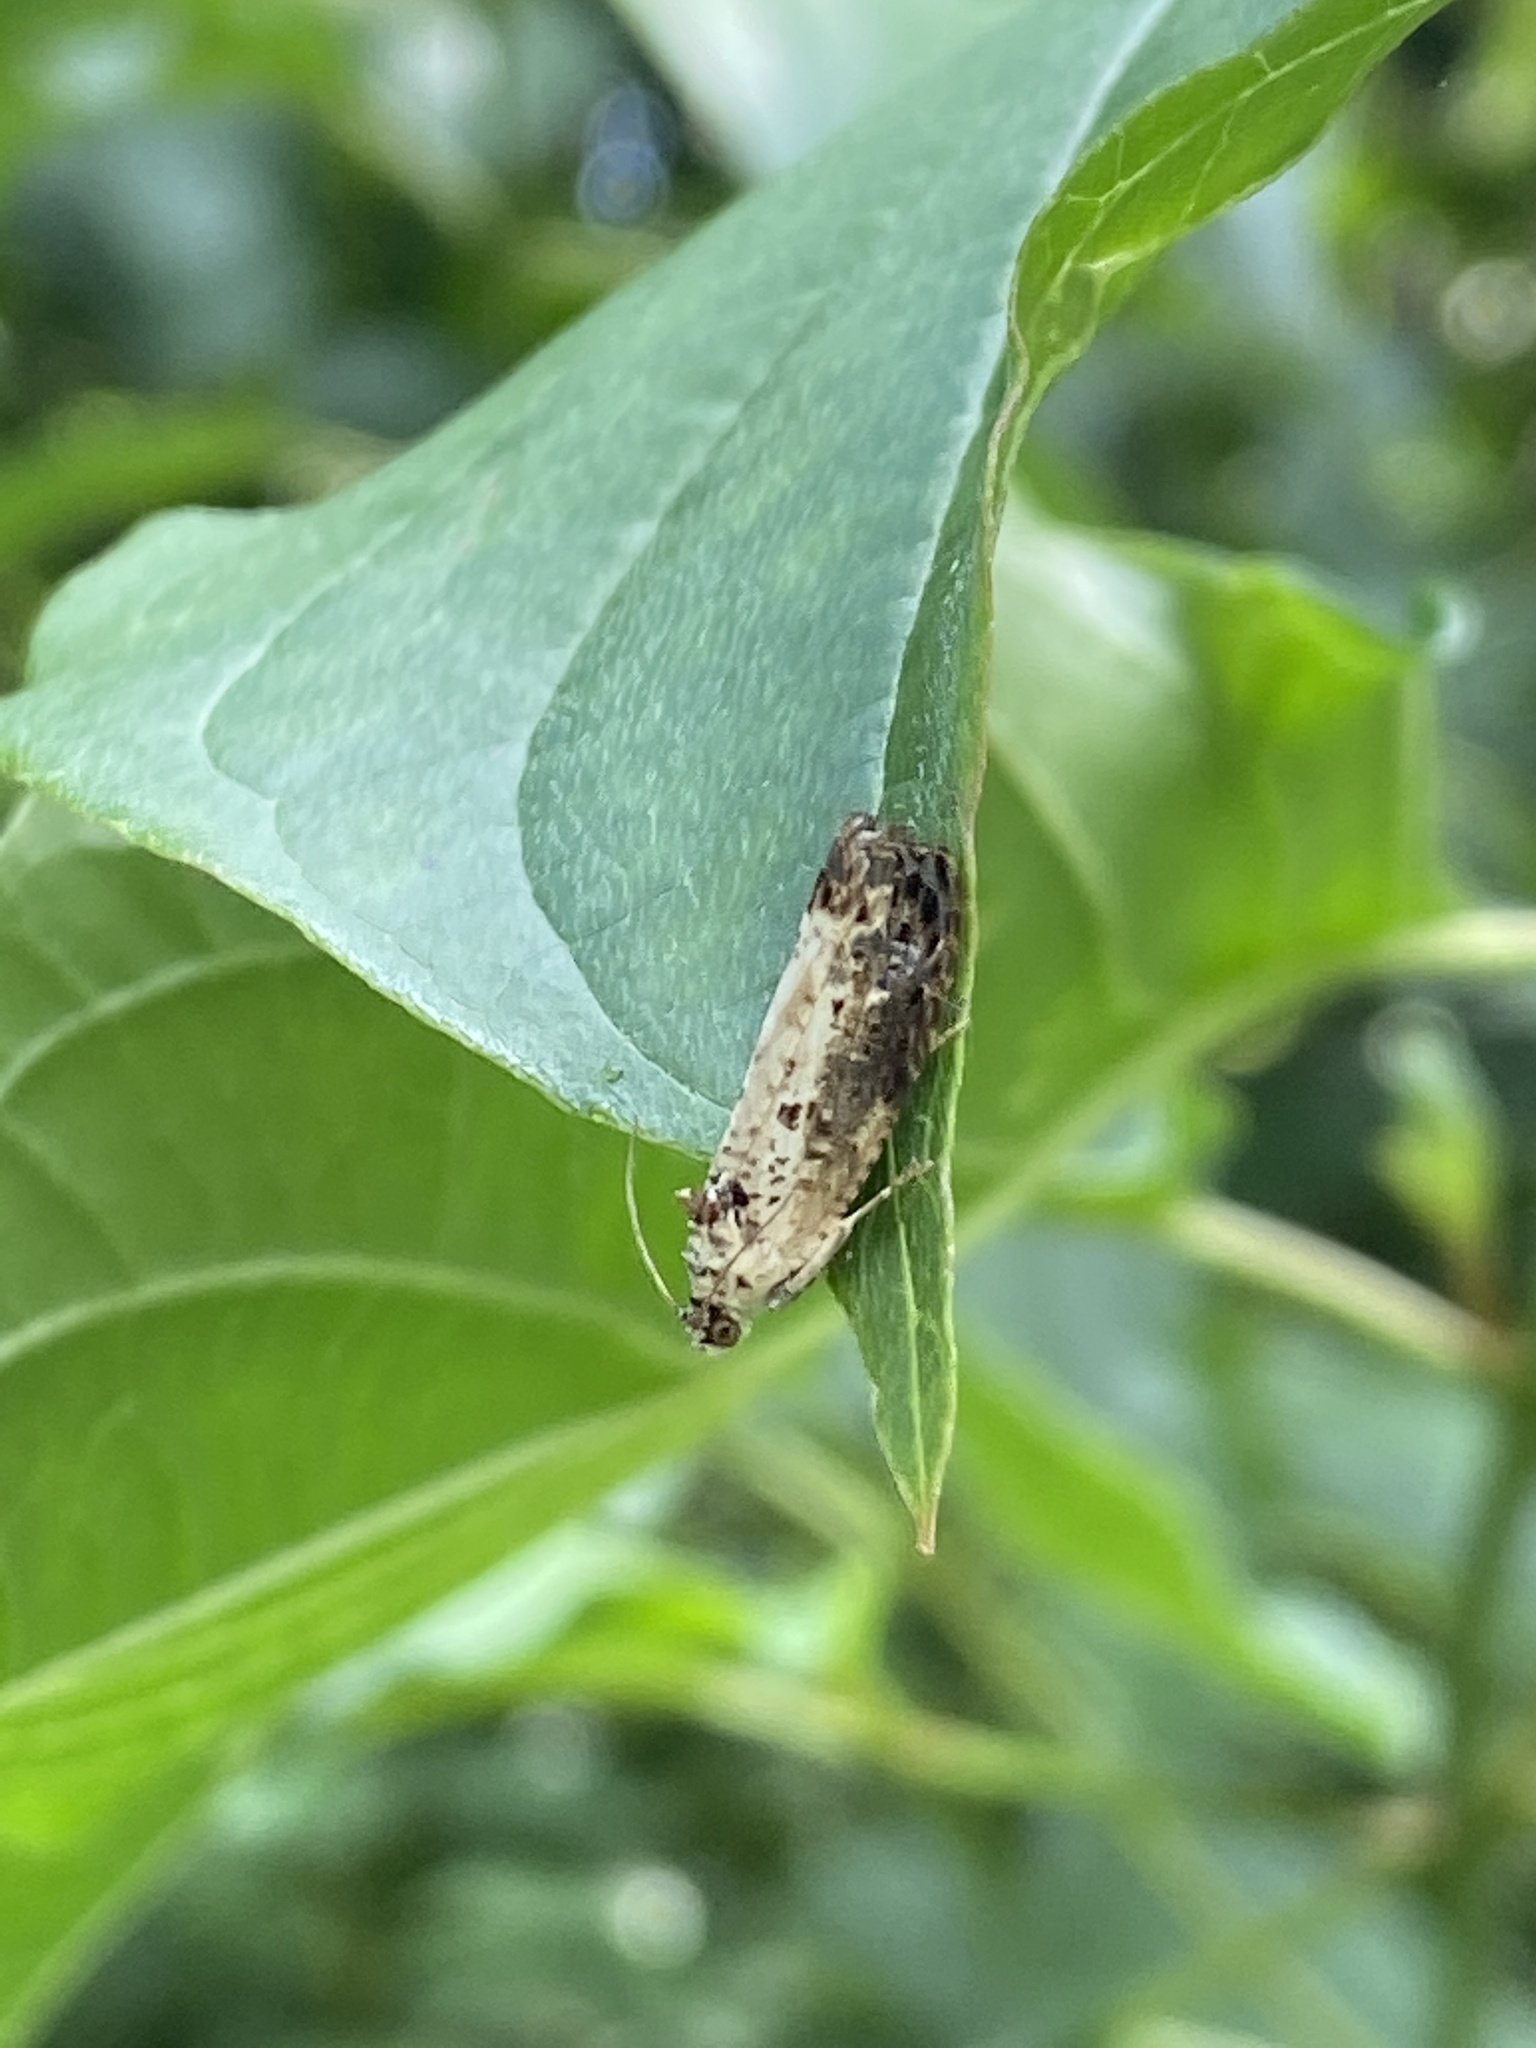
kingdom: Animalia
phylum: Arthropoda
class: Insecta
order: Lepidoptera
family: Tortricidae
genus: Hedya
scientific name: Hedya salicella
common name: Large tortricid moth
